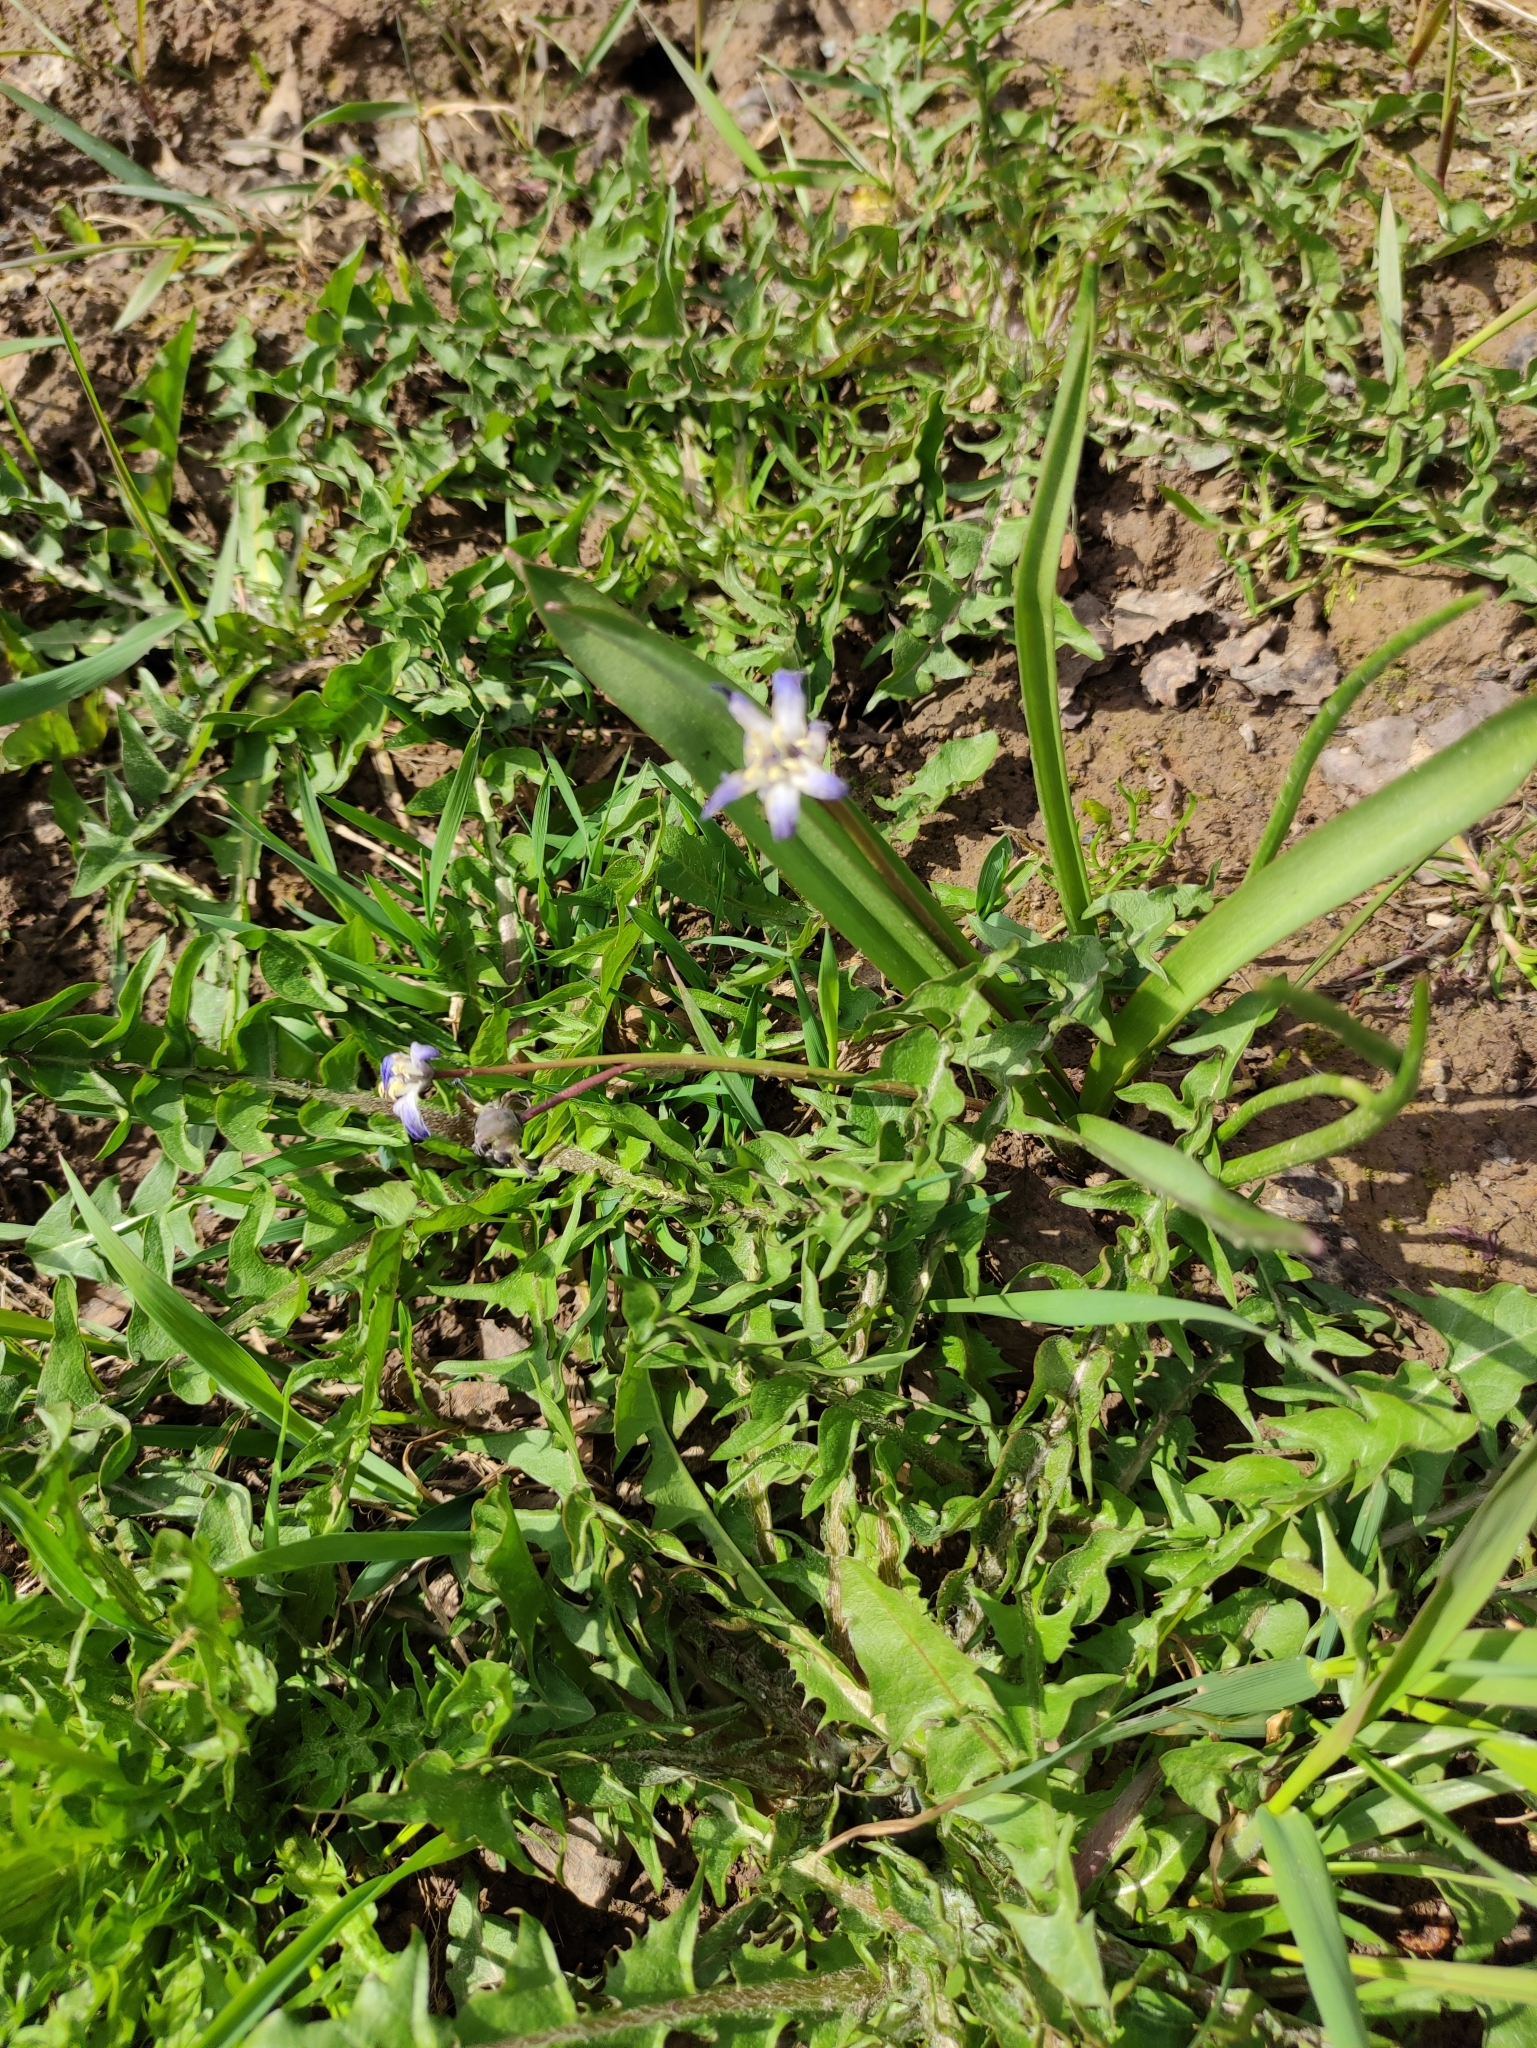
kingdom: Plantae
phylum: Tracheophyta
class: Liliopsida
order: Asparagales
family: Asparagaceae
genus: Scilla
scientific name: Scilla luciliae
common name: Boissier's glory-of-the-snow
